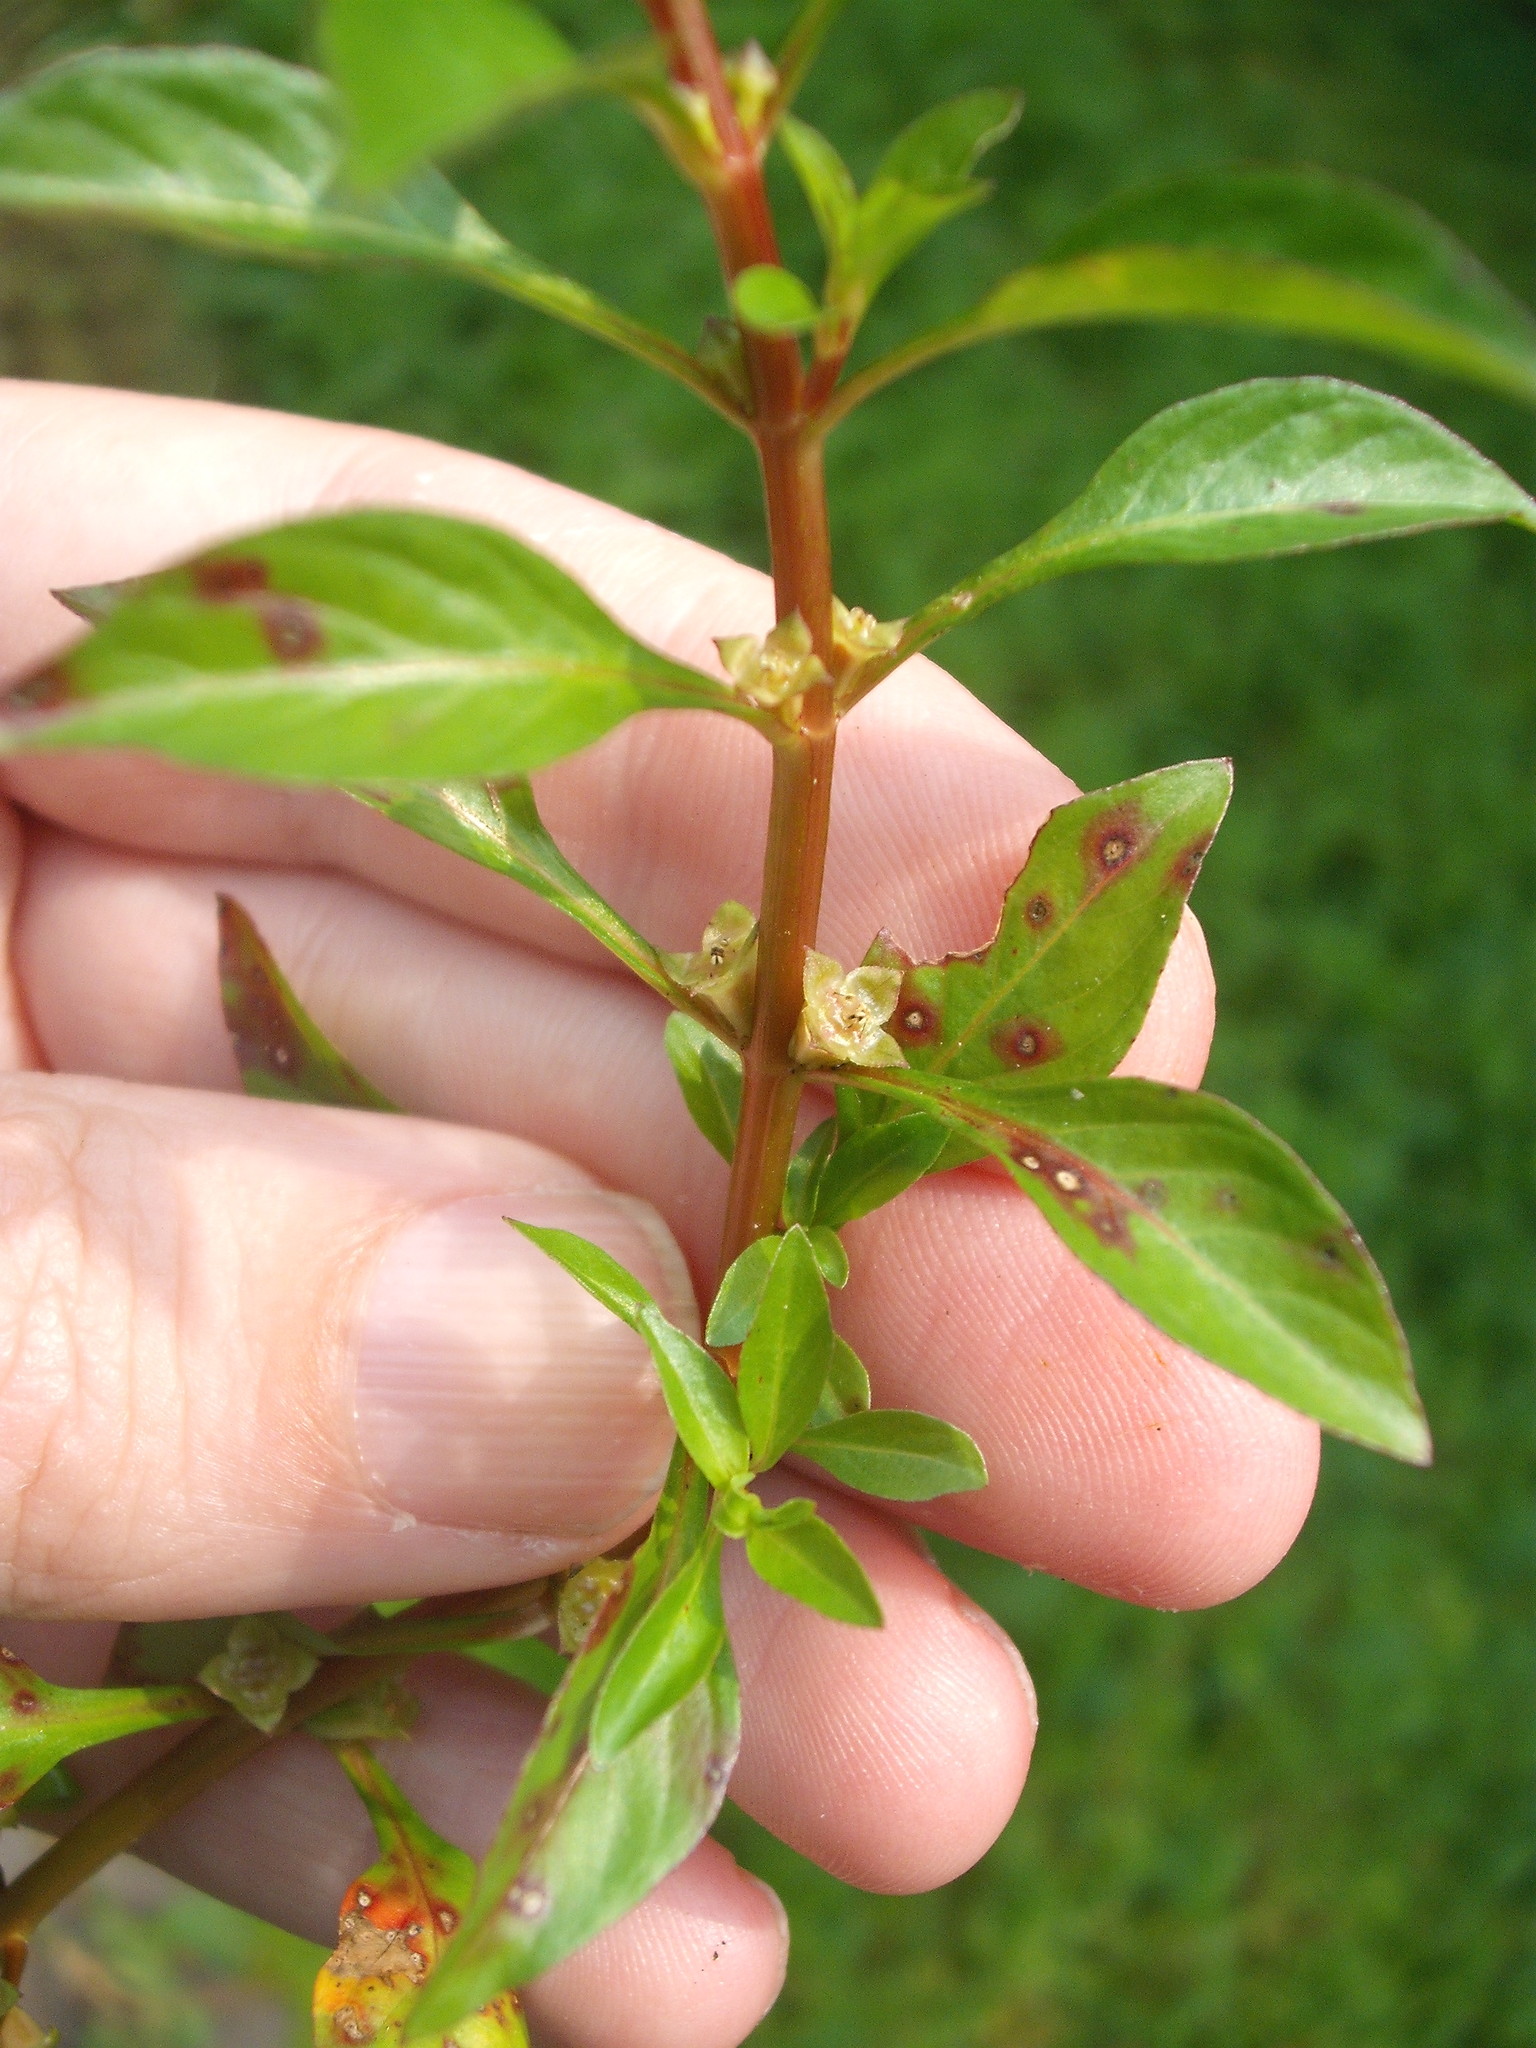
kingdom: Plantae
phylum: Tracheophyta
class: Magnoliopsida
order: Myrtales
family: Onagraceae
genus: Ludwigia
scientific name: Ludwigia palustris
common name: Hampshire-purslane
